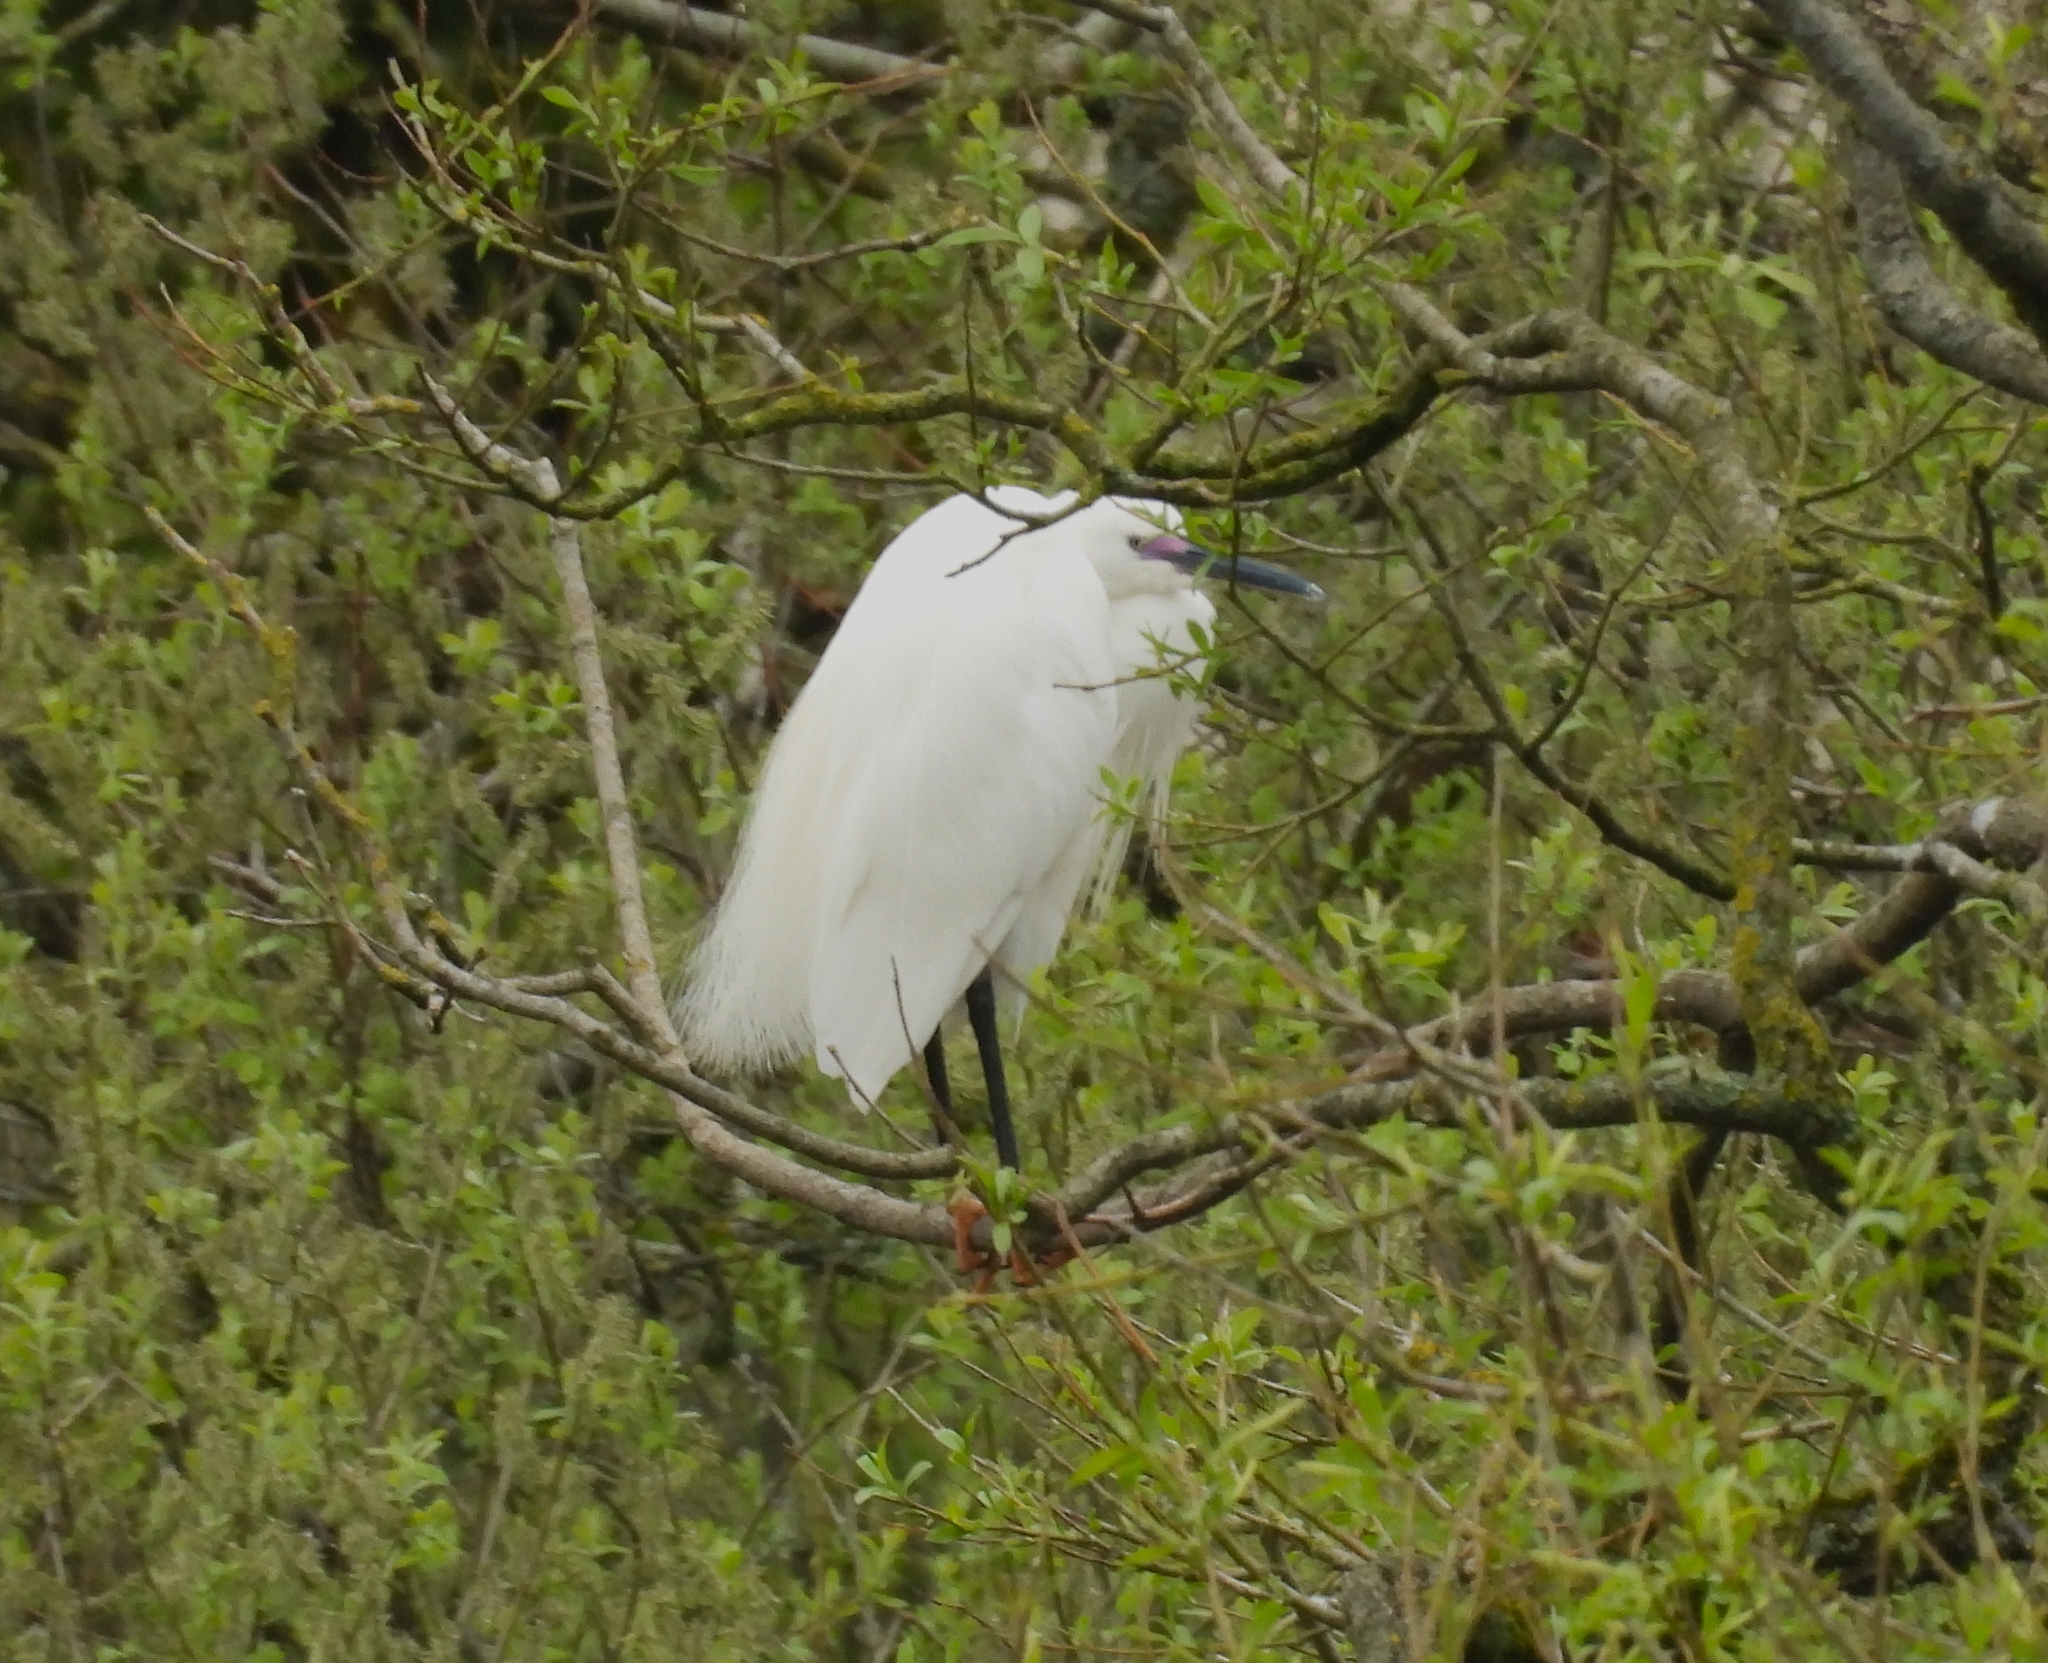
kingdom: Animalia
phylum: Chordata
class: Aves
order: Pelecaniformes
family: Ardeidae
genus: Egretta
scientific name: Egretta garzetta
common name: Little egret
